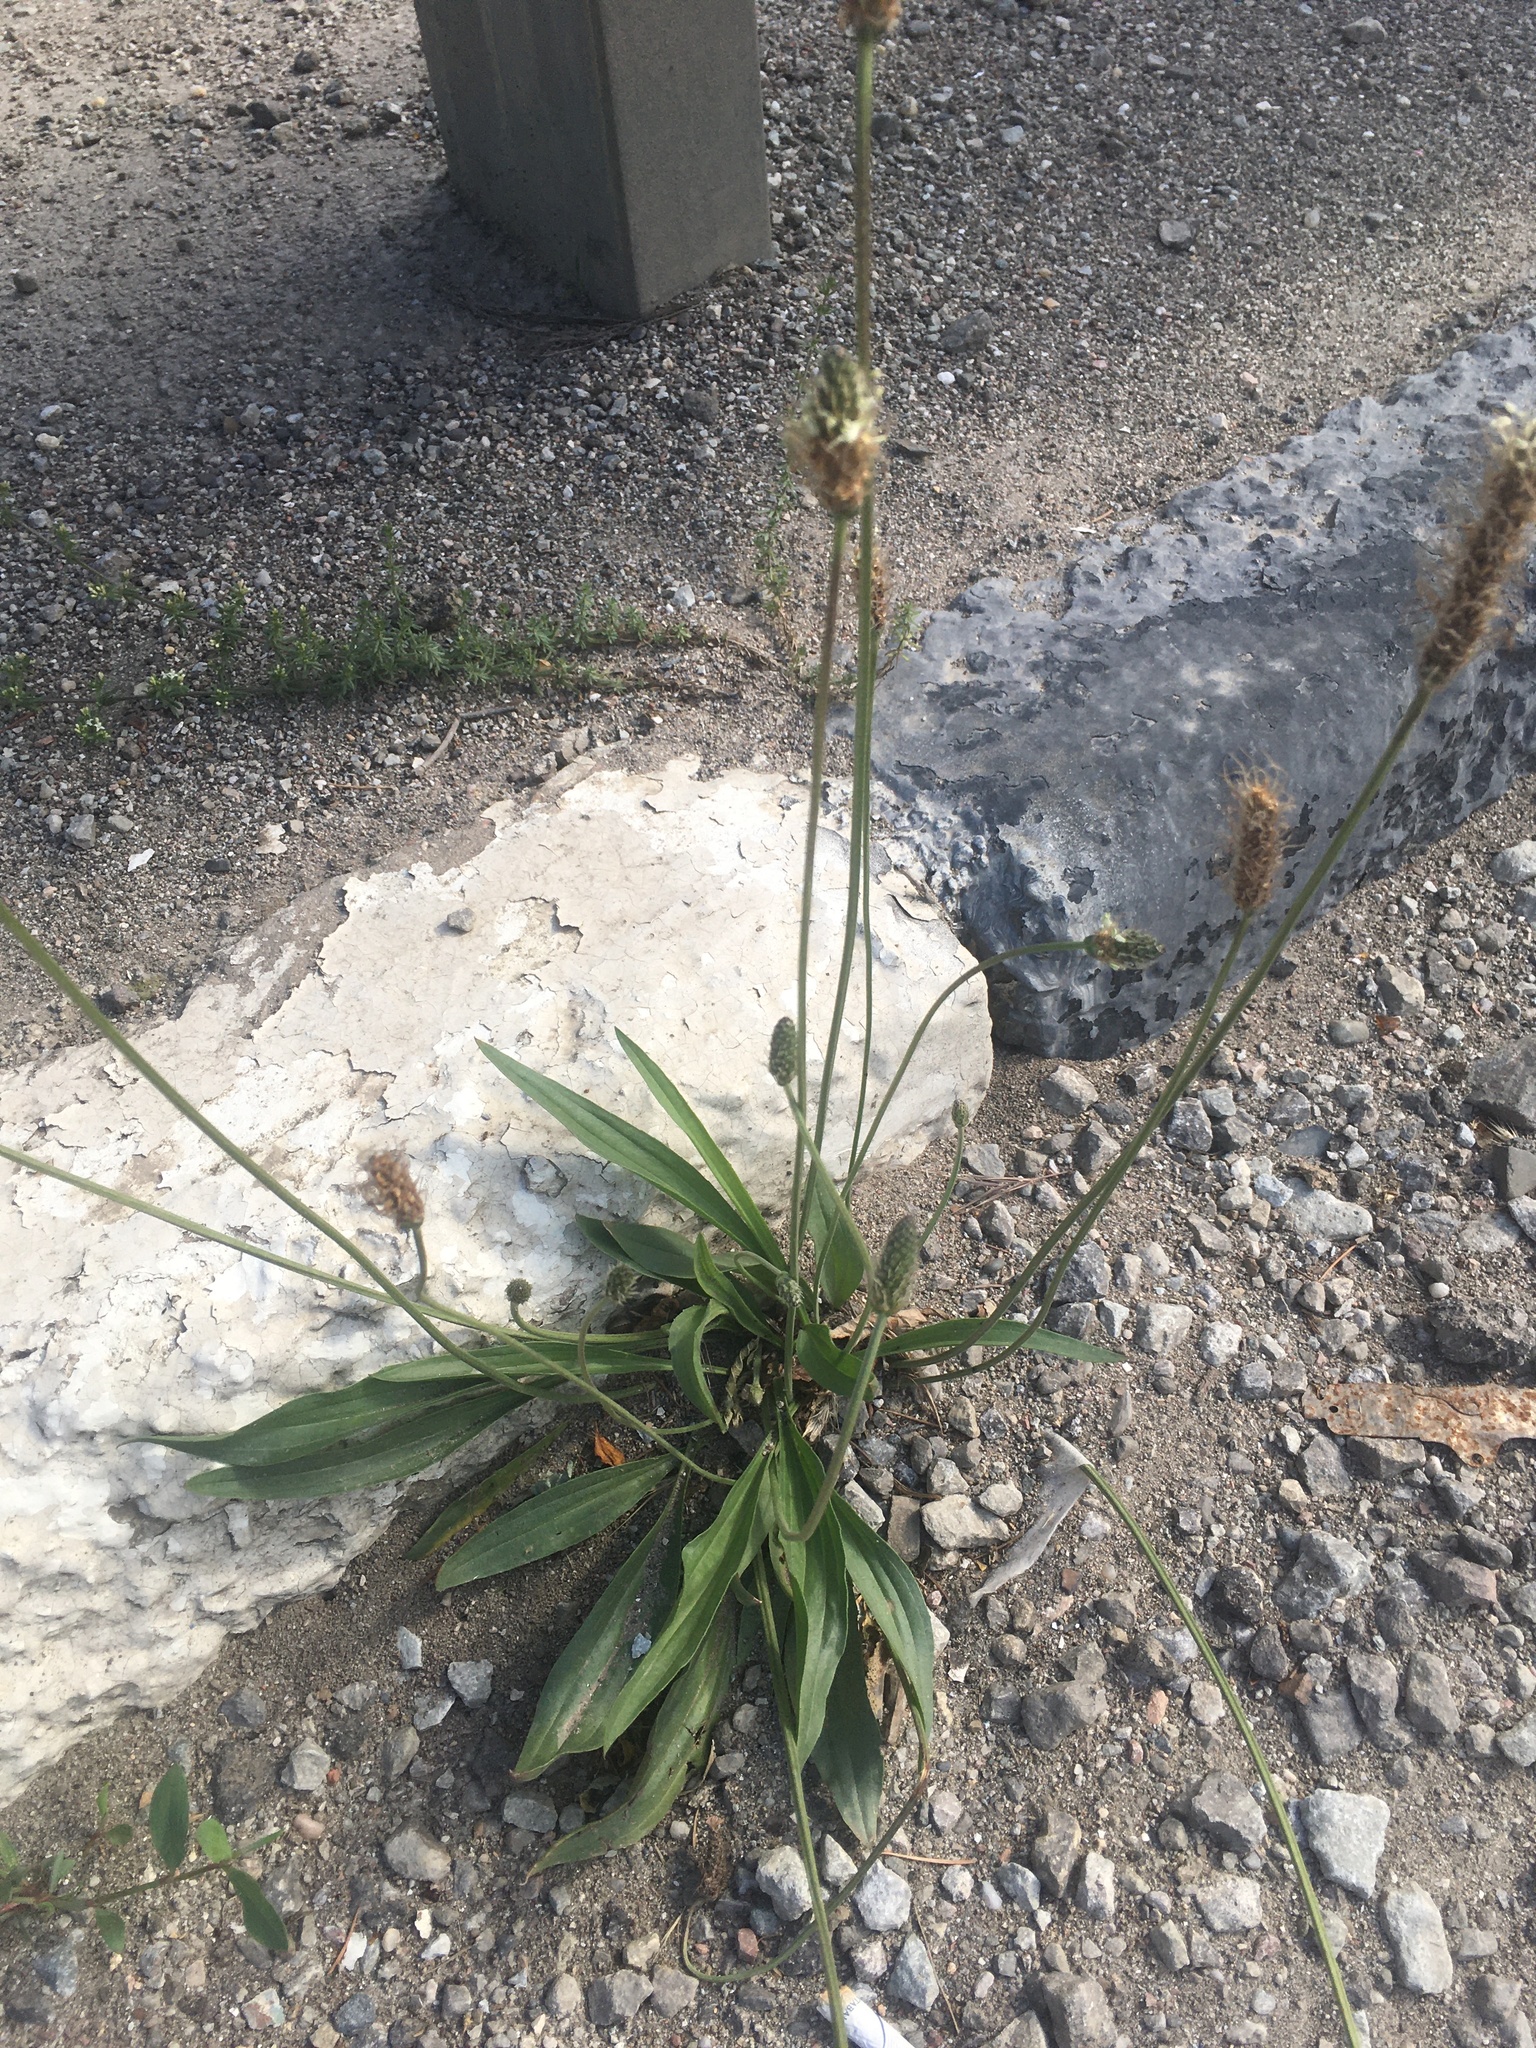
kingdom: Plantae
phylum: Tracheophyta
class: Magnoliopsida
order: Lamiales
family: Plantaginaceae
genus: Plantago
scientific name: Plantago lanceolata
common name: Ribwort plantain
